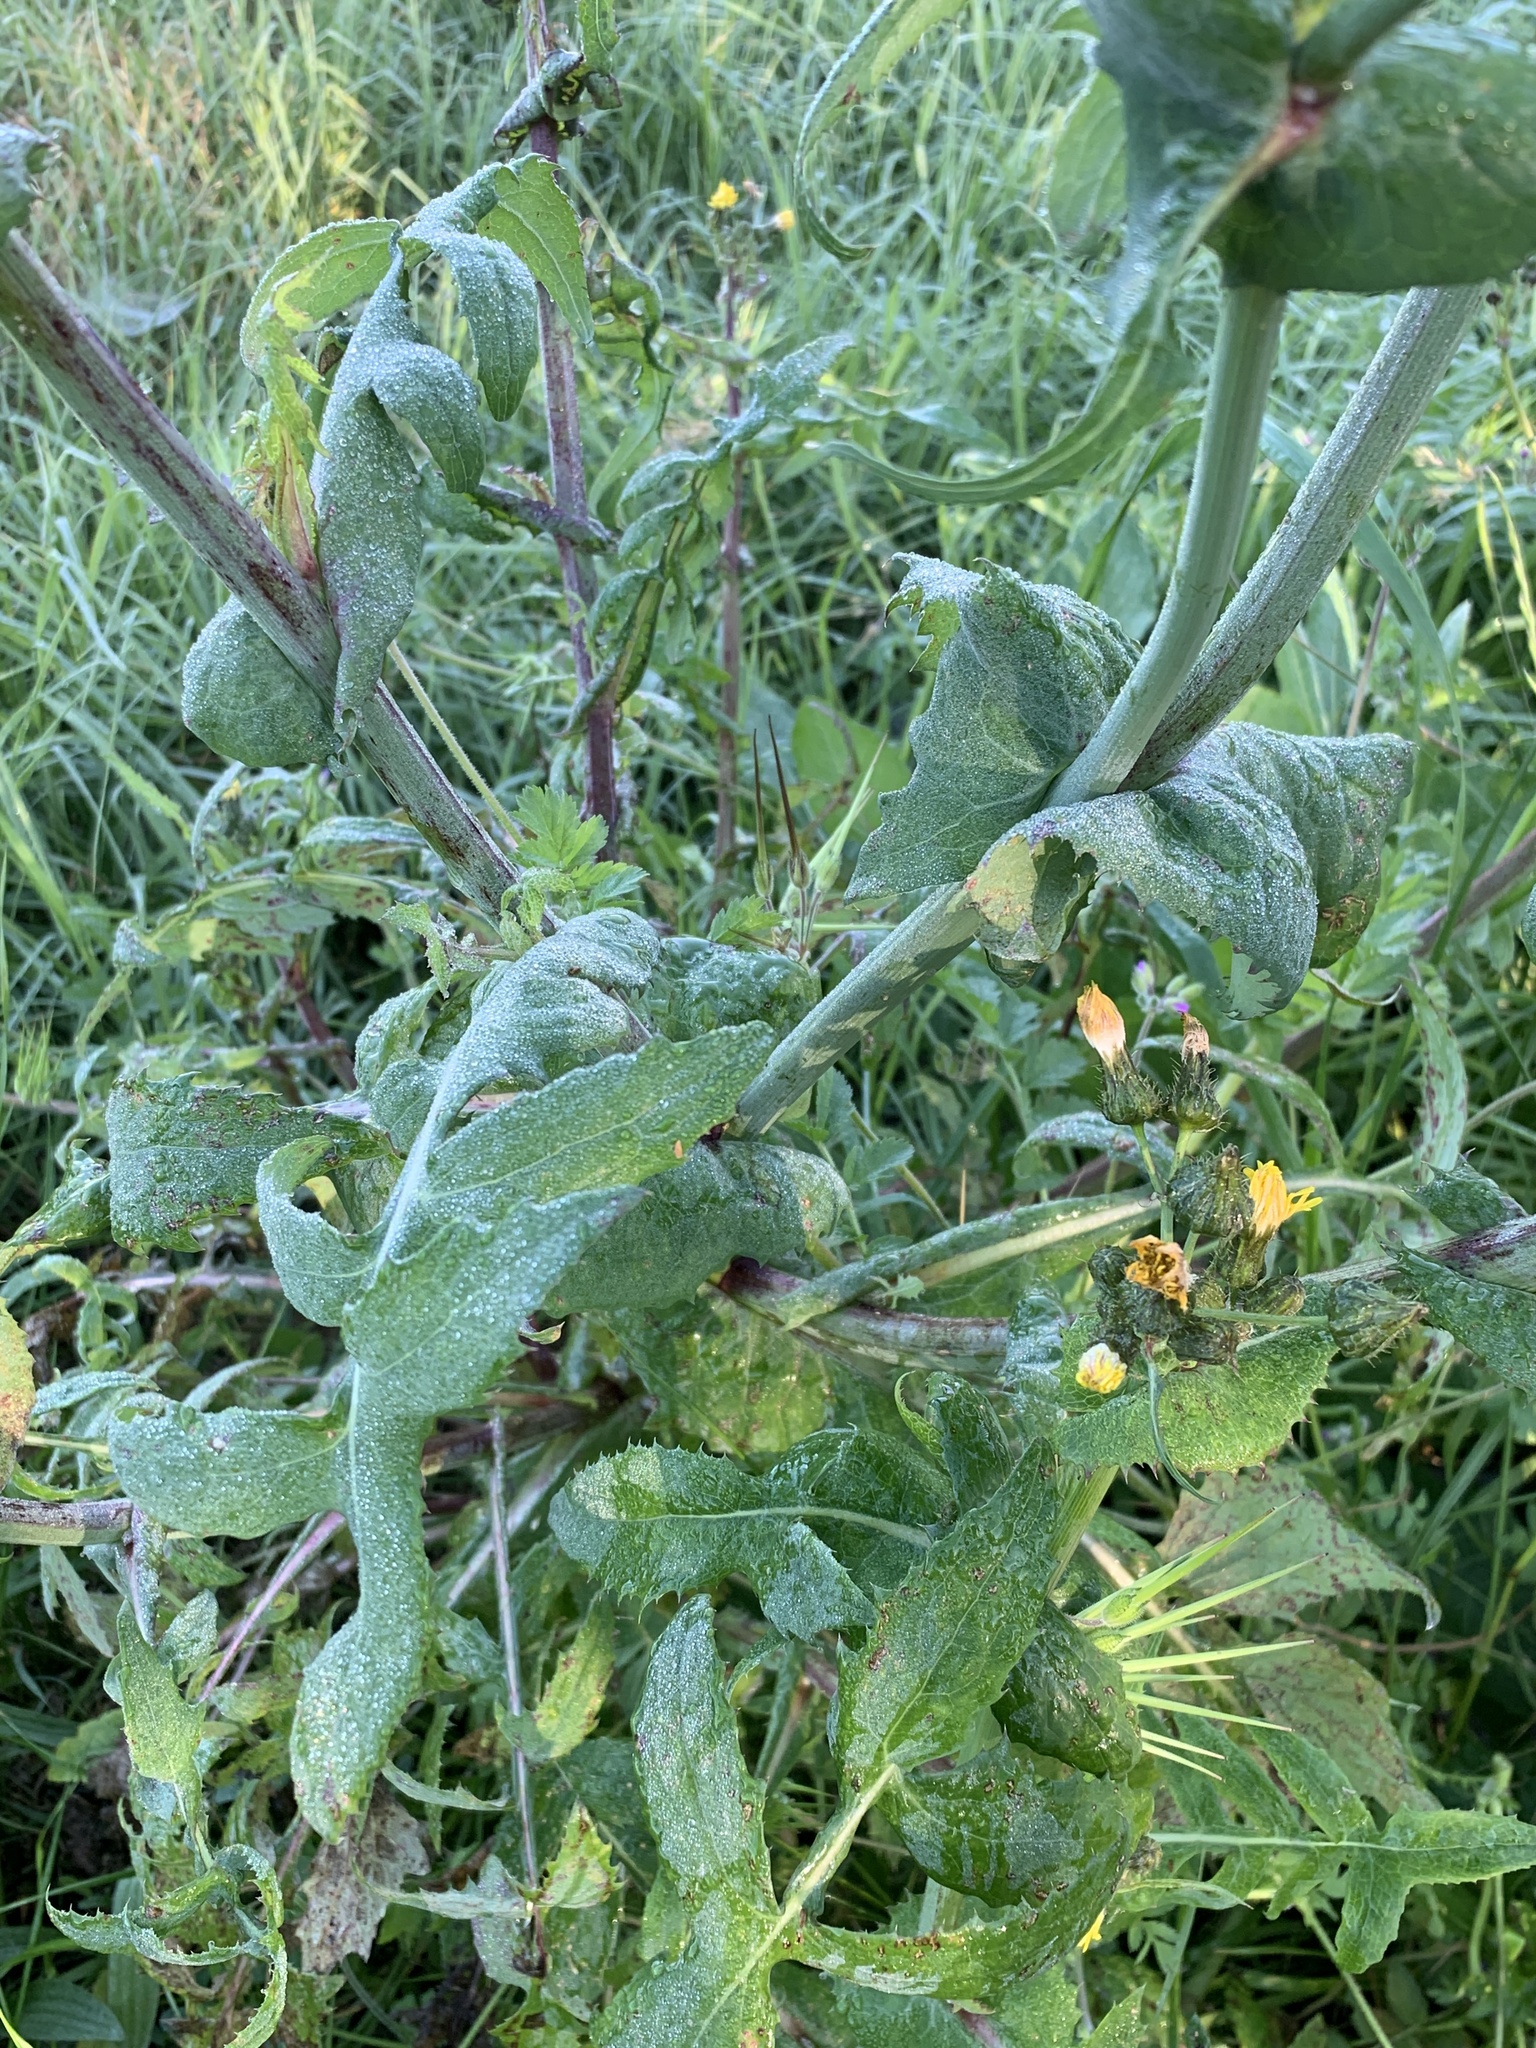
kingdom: Plantae
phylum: Tracheophyta
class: Magnoliopsida
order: Asterales
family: Asteraceae
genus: Sonchus
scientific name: Sonchus oleraceus
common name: Common sowthistle
